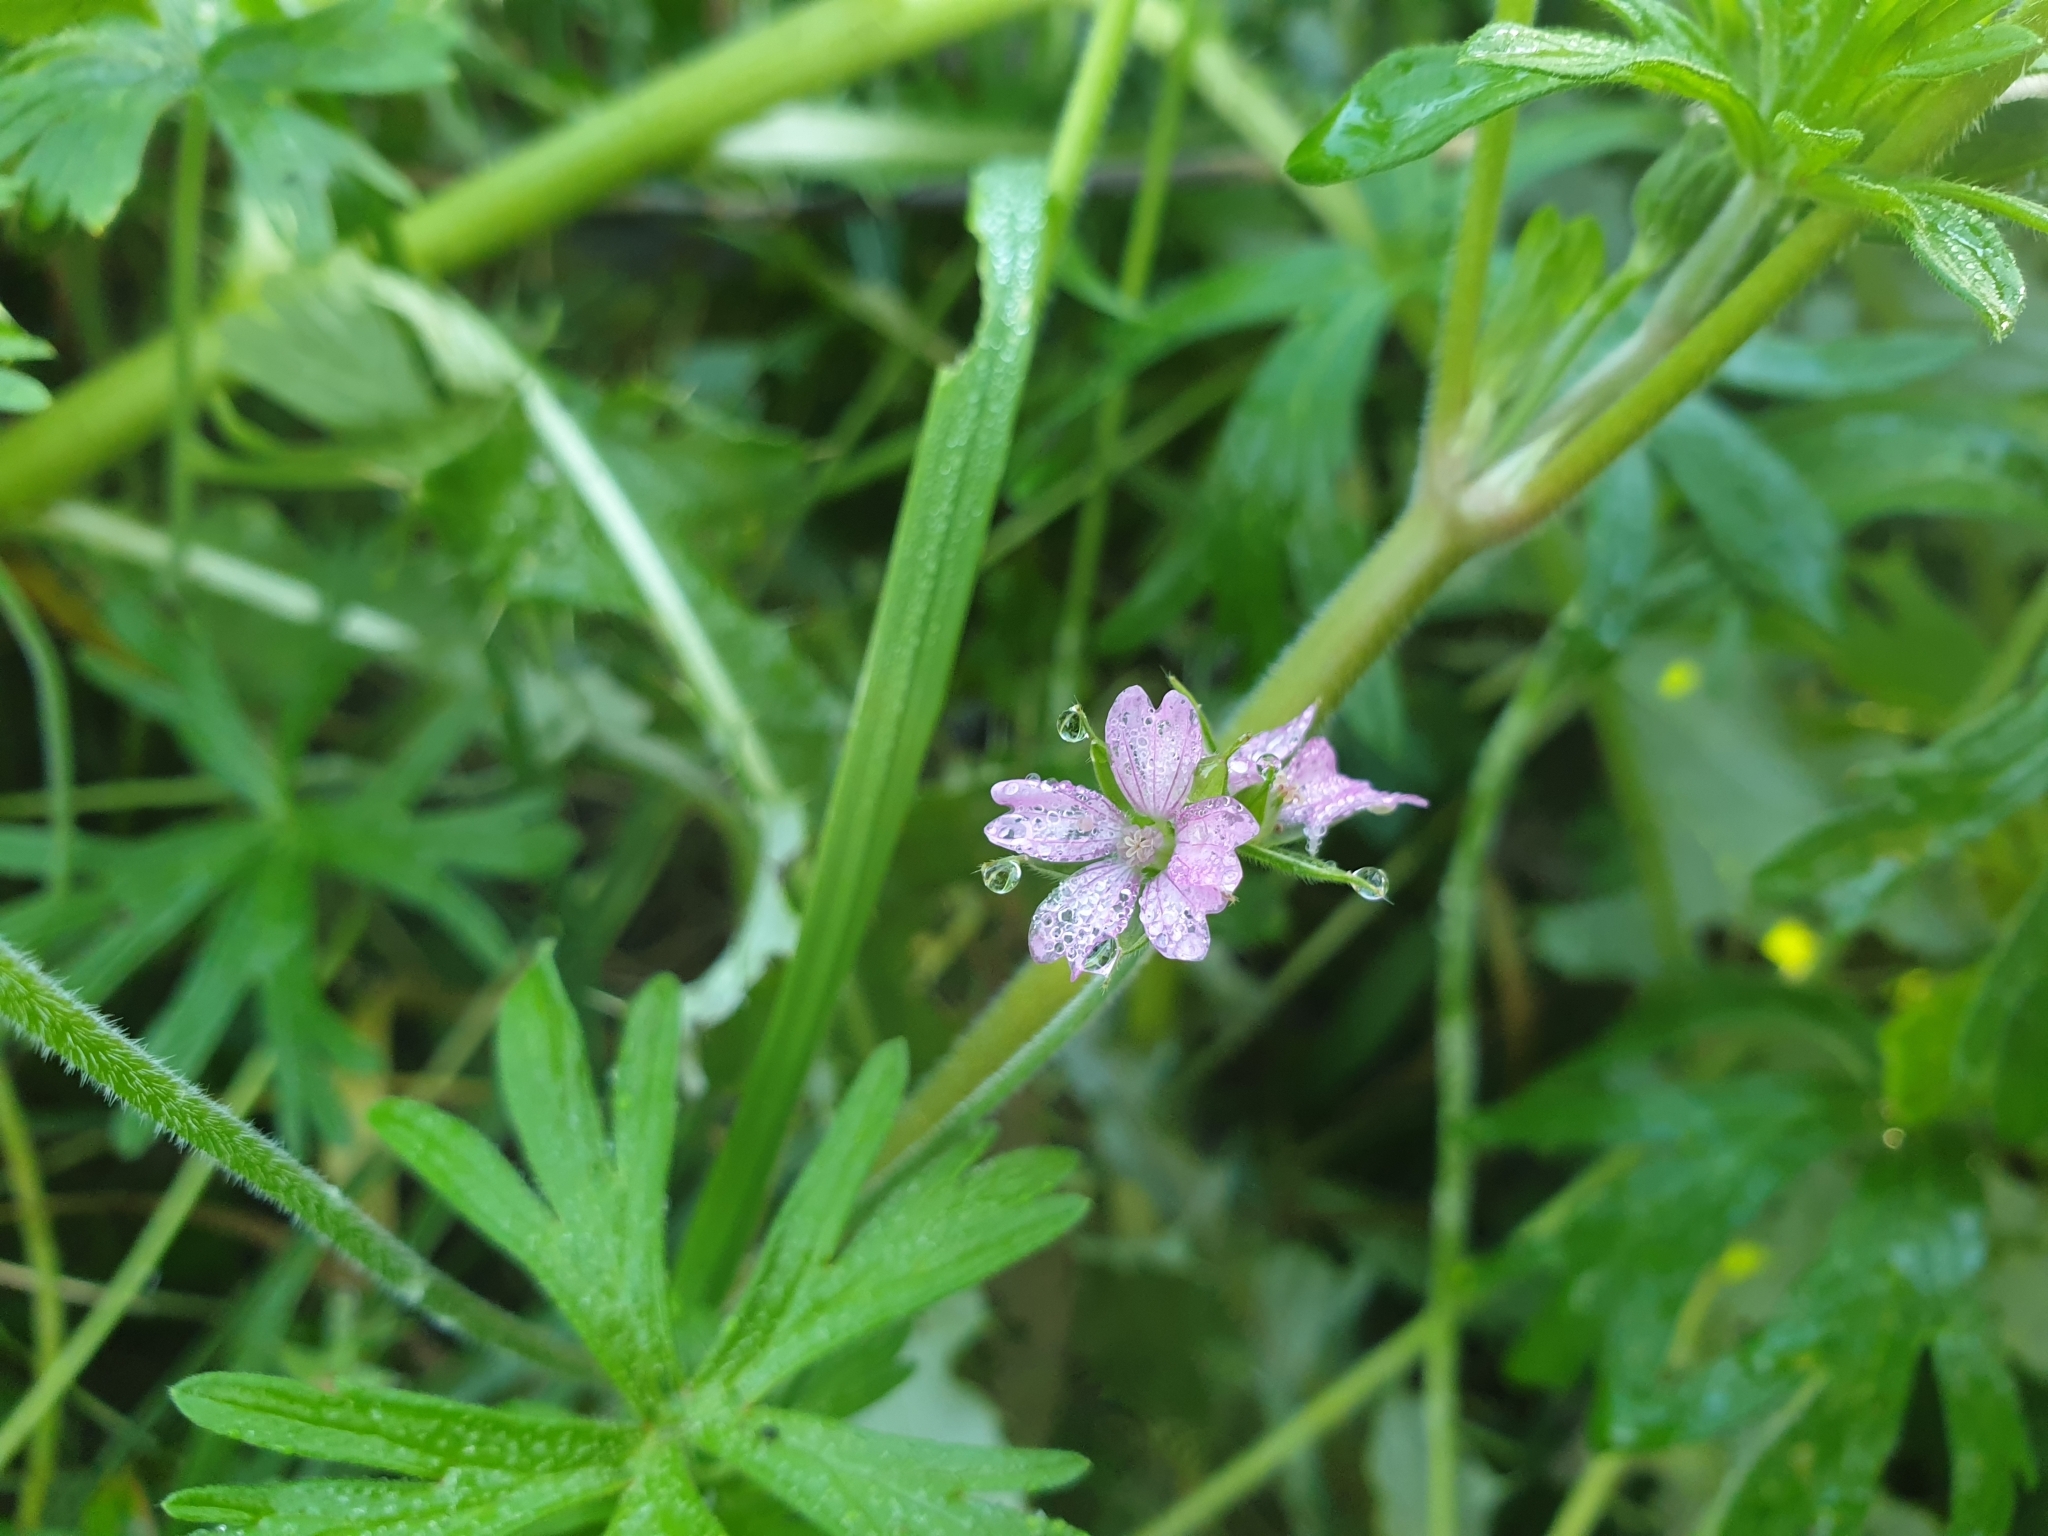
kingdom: Plantae
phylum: Tracheophyta
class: Magnoliopsida
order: Geraniales
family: Geraniaceae
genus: Geranium
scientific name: Geranium dissectum
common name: Cut-leaved crane's-bill
